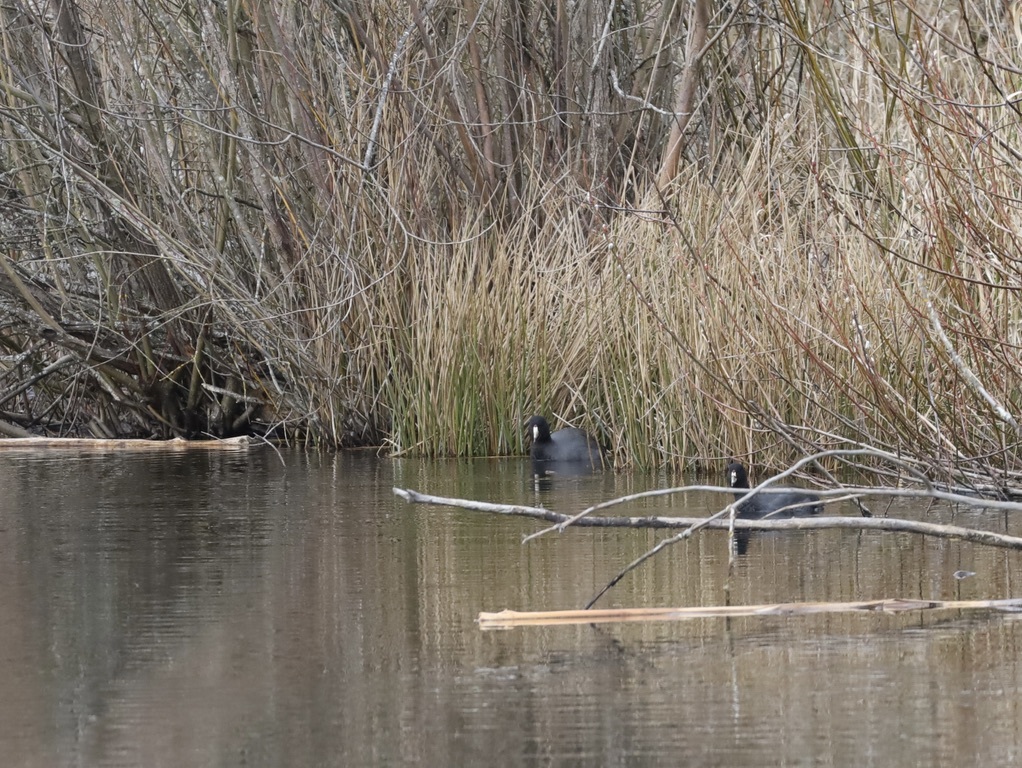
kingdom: Animalia
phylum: Chordata
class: Aves
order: Gruiformes
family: Rallidae
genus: Fulica
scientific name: Fulica americana
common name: American coot
